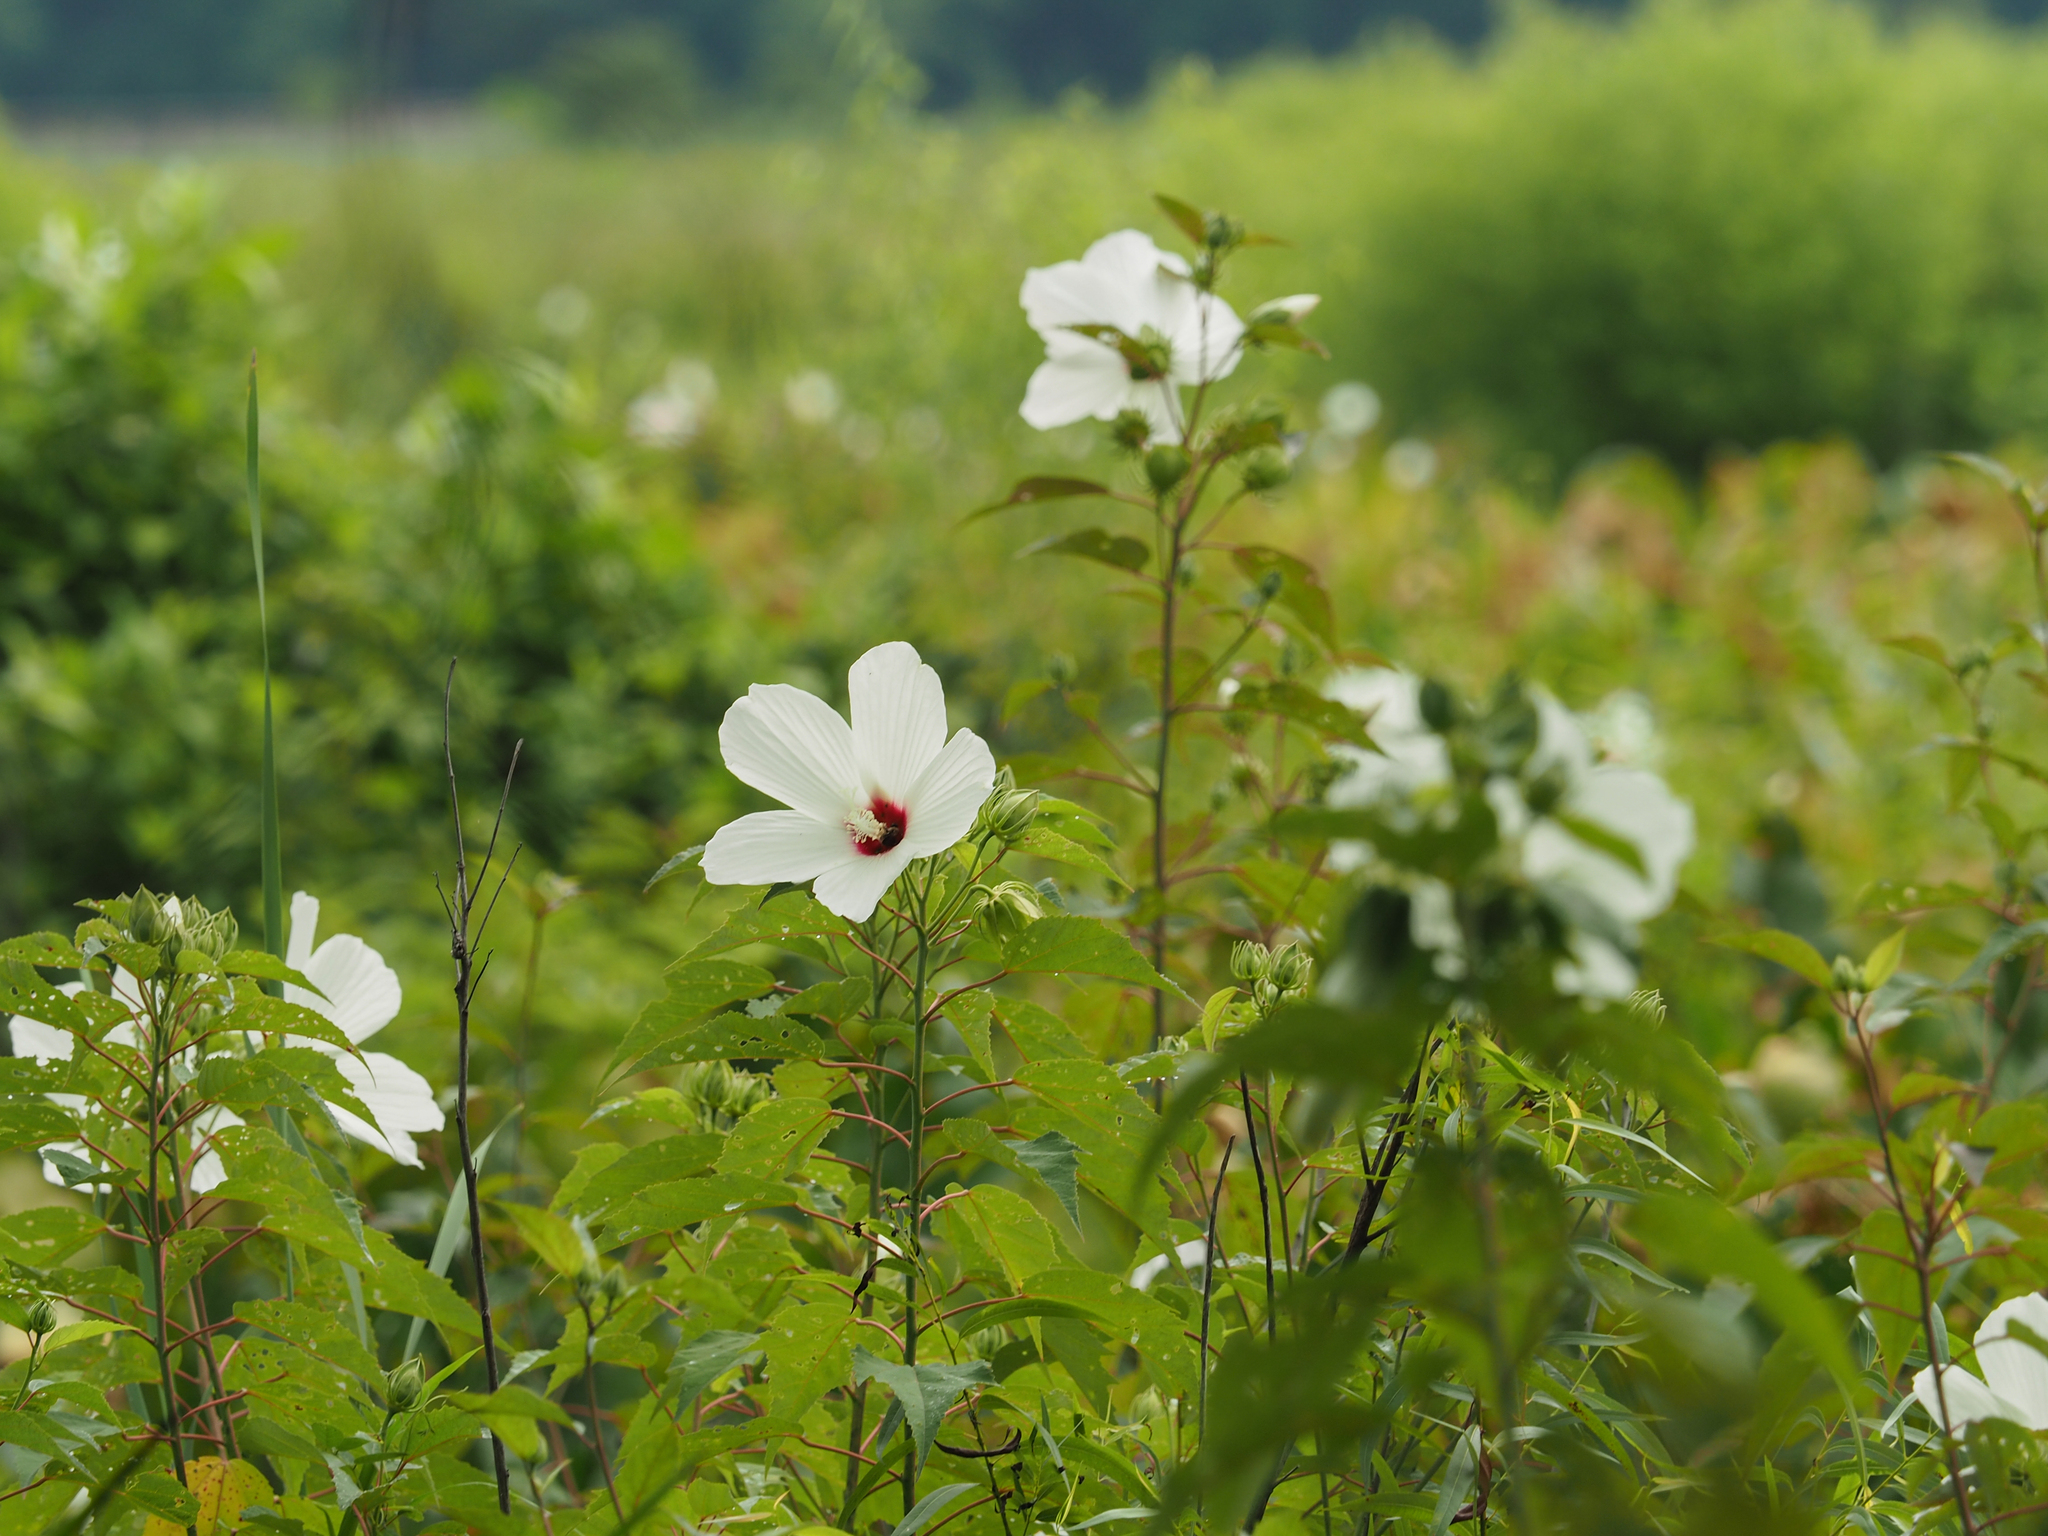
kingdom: Plantae
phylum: Tracheophyta
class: Magnoliopsida
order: Malvales
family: Malvaceae
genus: Hibiscus
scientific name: Hibiscus moscheutos
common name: Common rose-mallow
